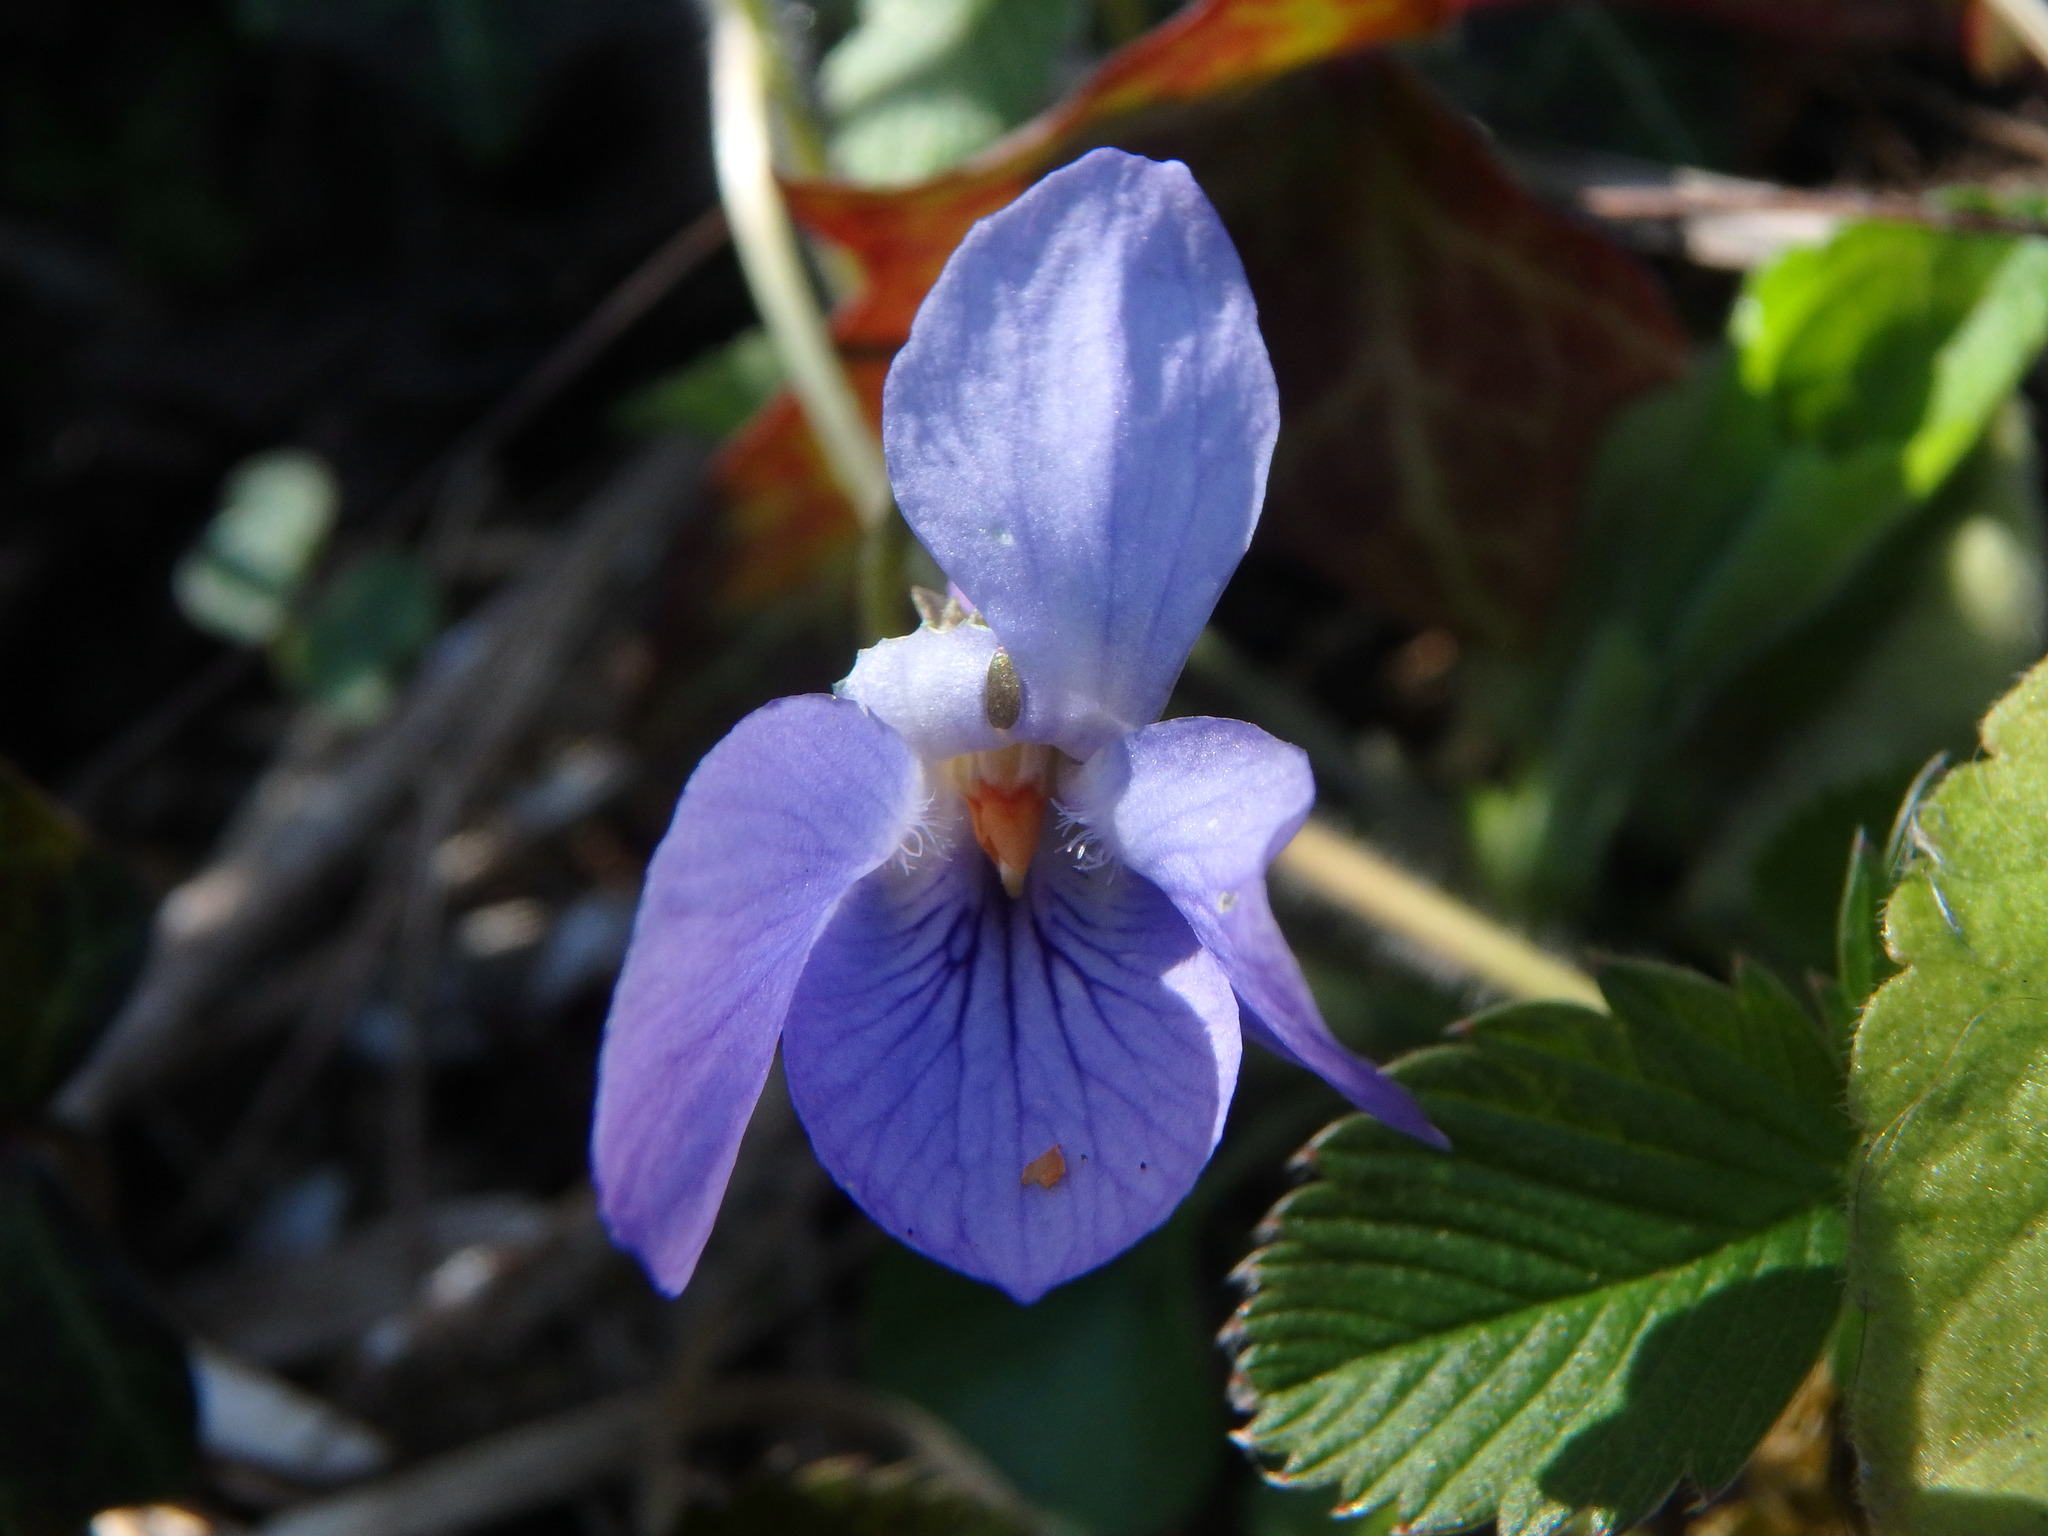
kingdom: Plantae
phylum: Tracheophyta
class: Magnoliopsida
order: Malpighiales
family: Violaceae
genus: Viola
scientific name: Viola odorata
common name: Sweet violet
